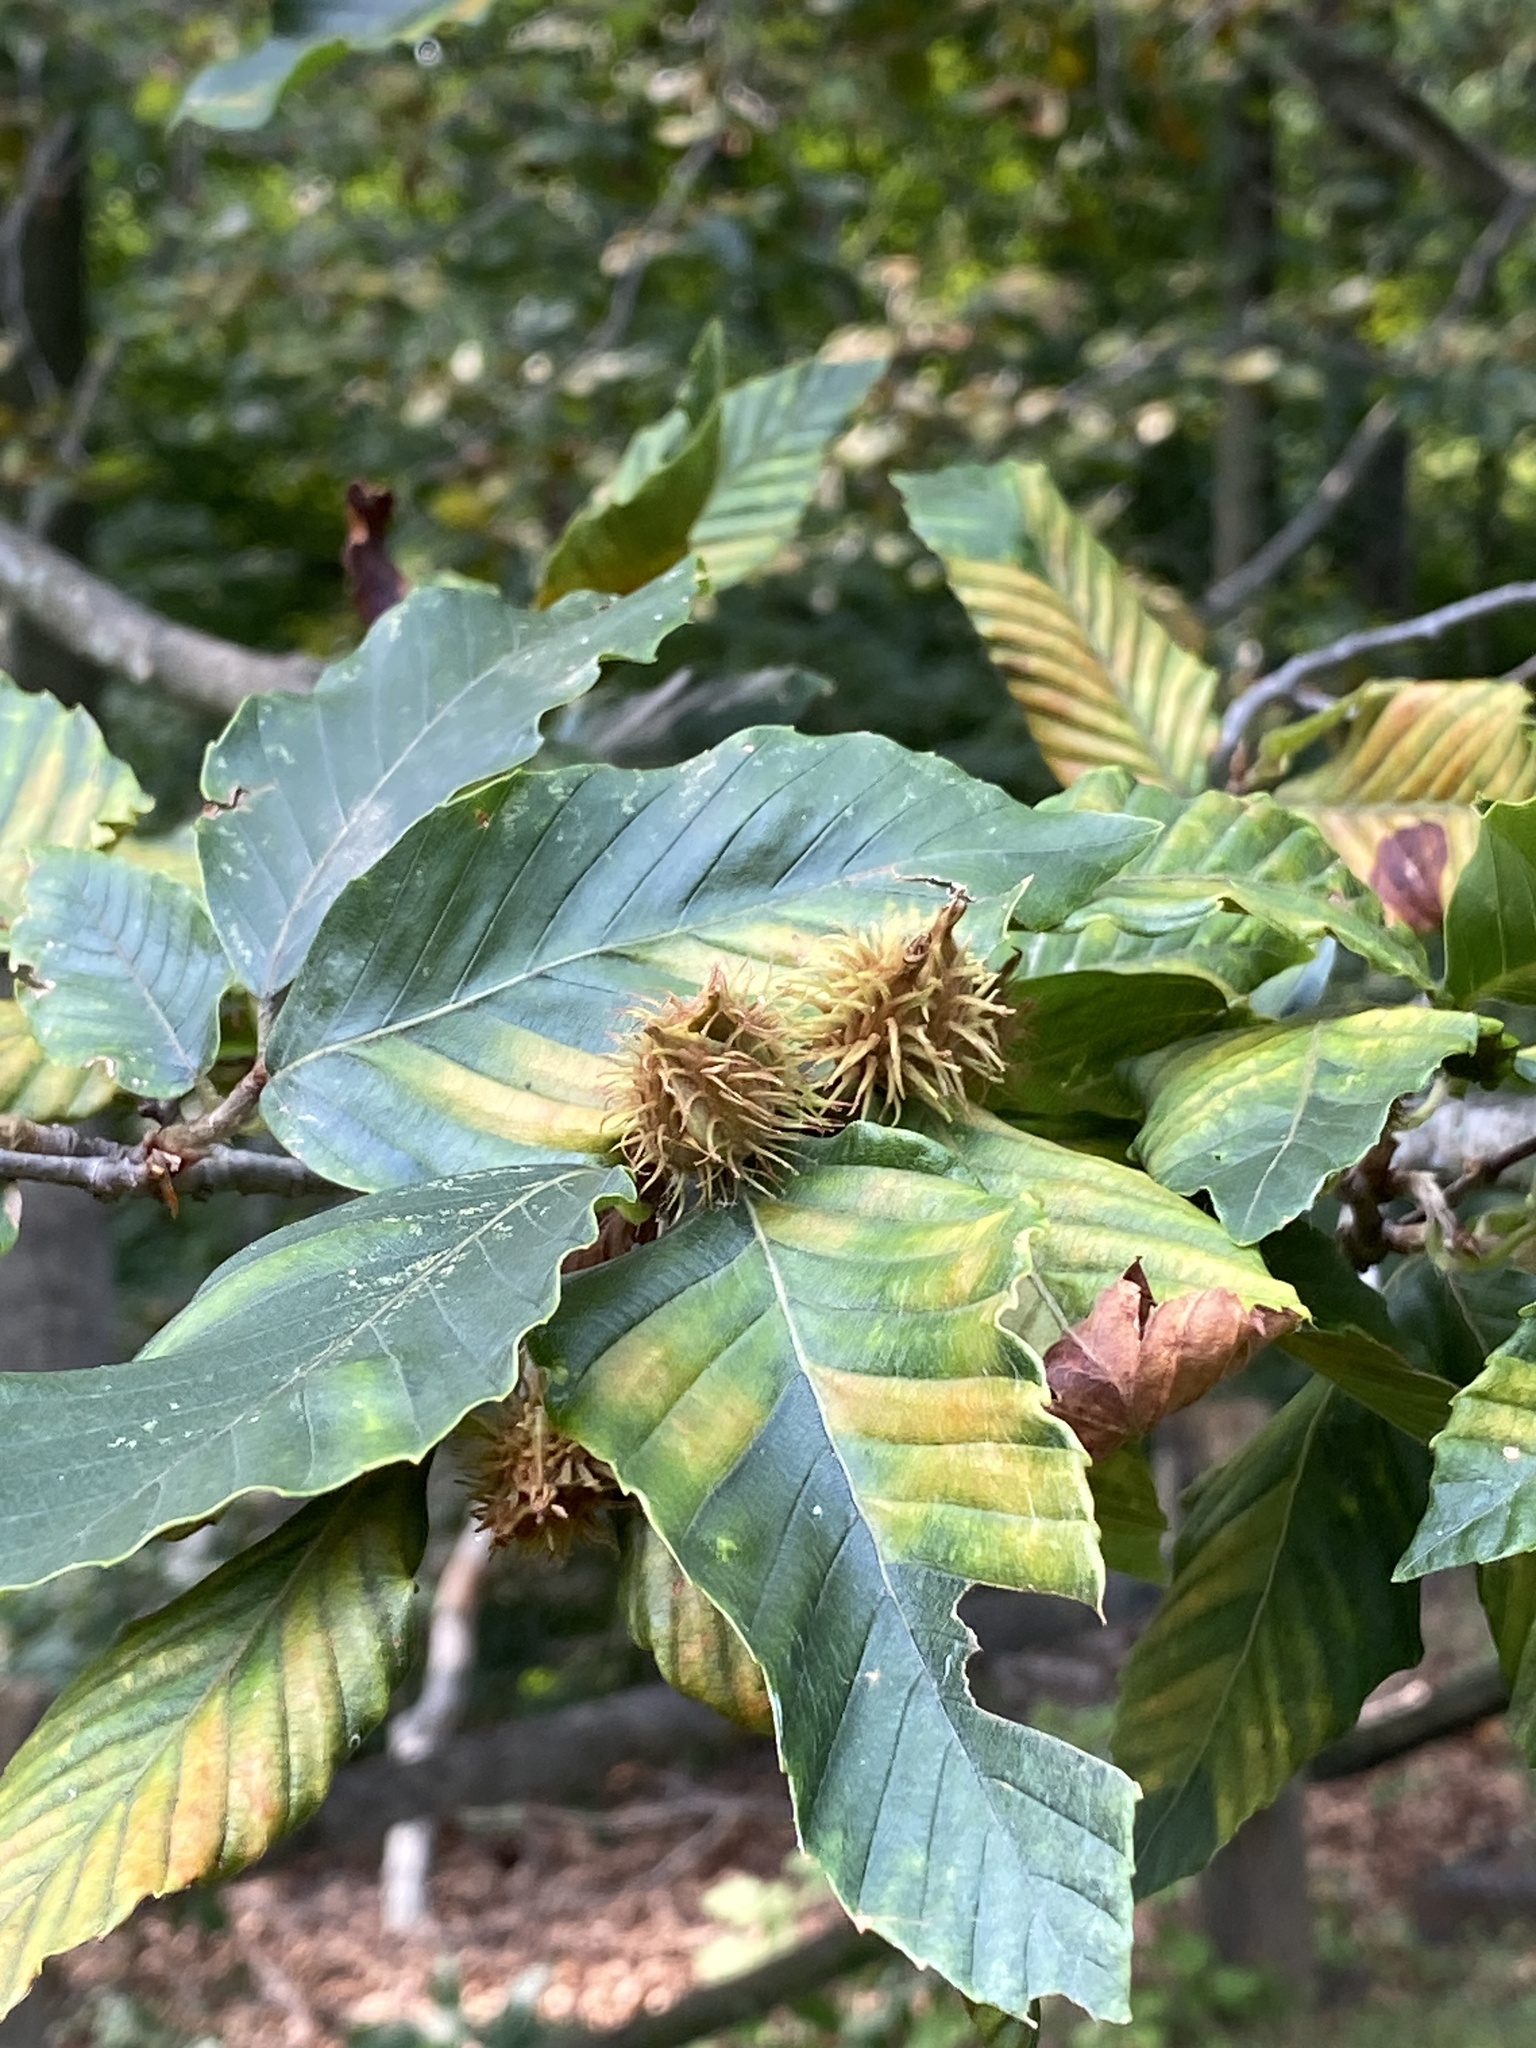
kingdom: Plantae
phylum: Tracheophyta
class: Magnoliopsida
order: Fagales
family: Fagaceae
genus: Fagus
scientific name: Fagus grandifolia
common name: American beech
